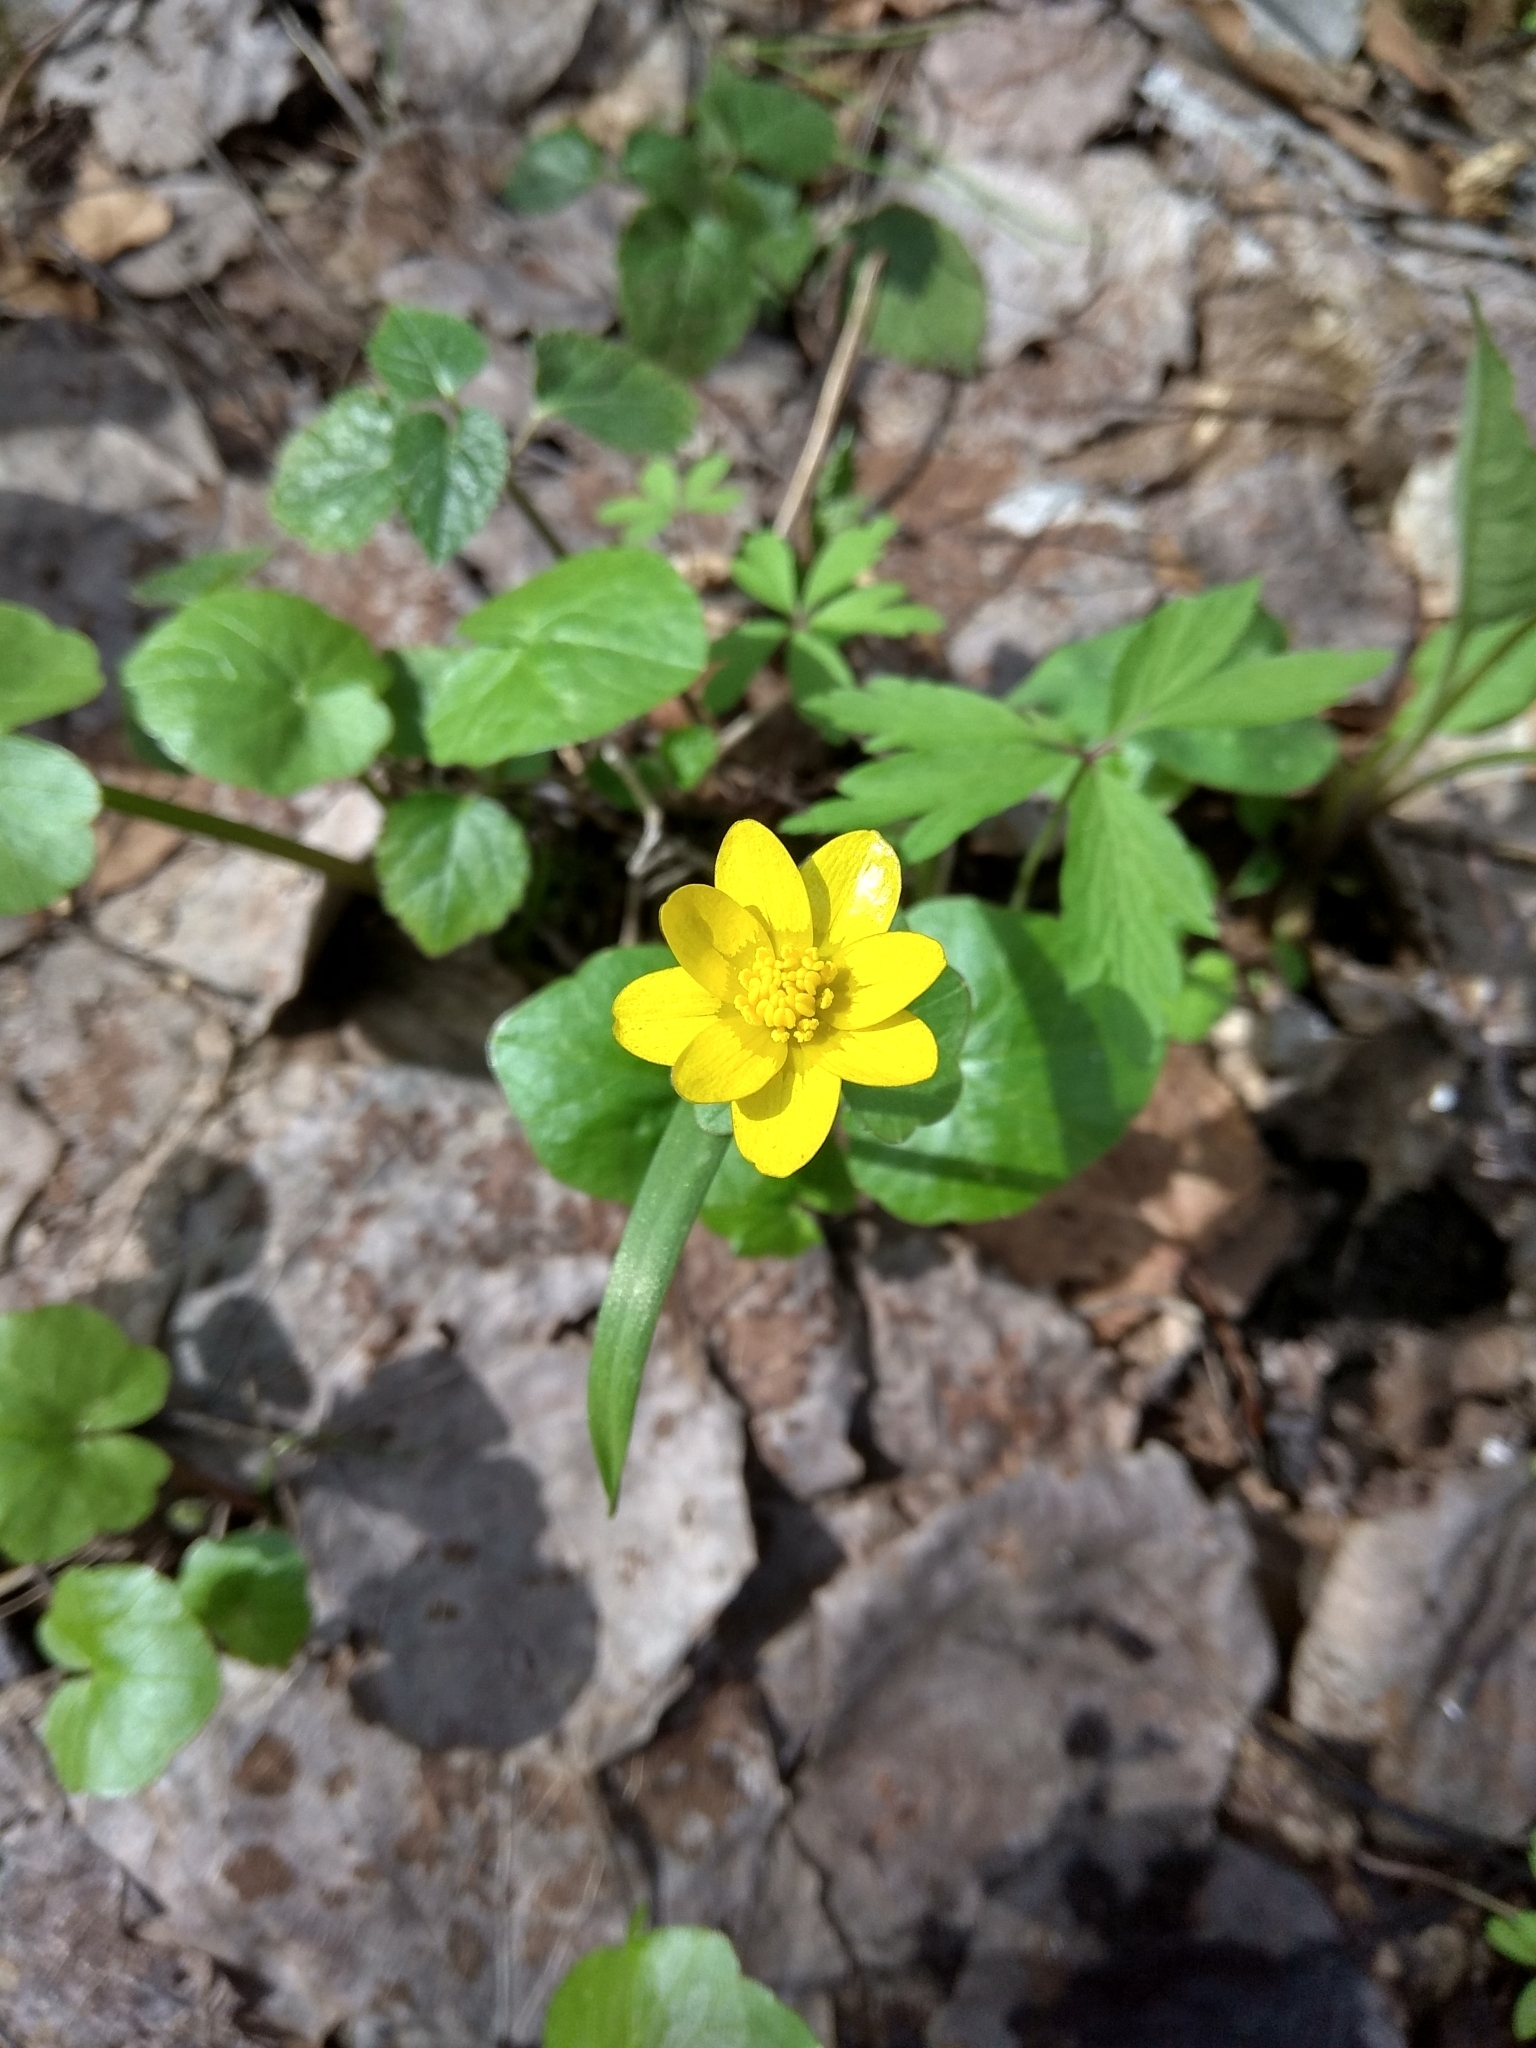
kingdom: Plantae
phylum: Tracheophyta
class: Magnoliopsida
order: Ranunculales
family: Ranunculaceae
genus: Ficaria
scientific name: Ficaria verna
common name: Lesser celandine
